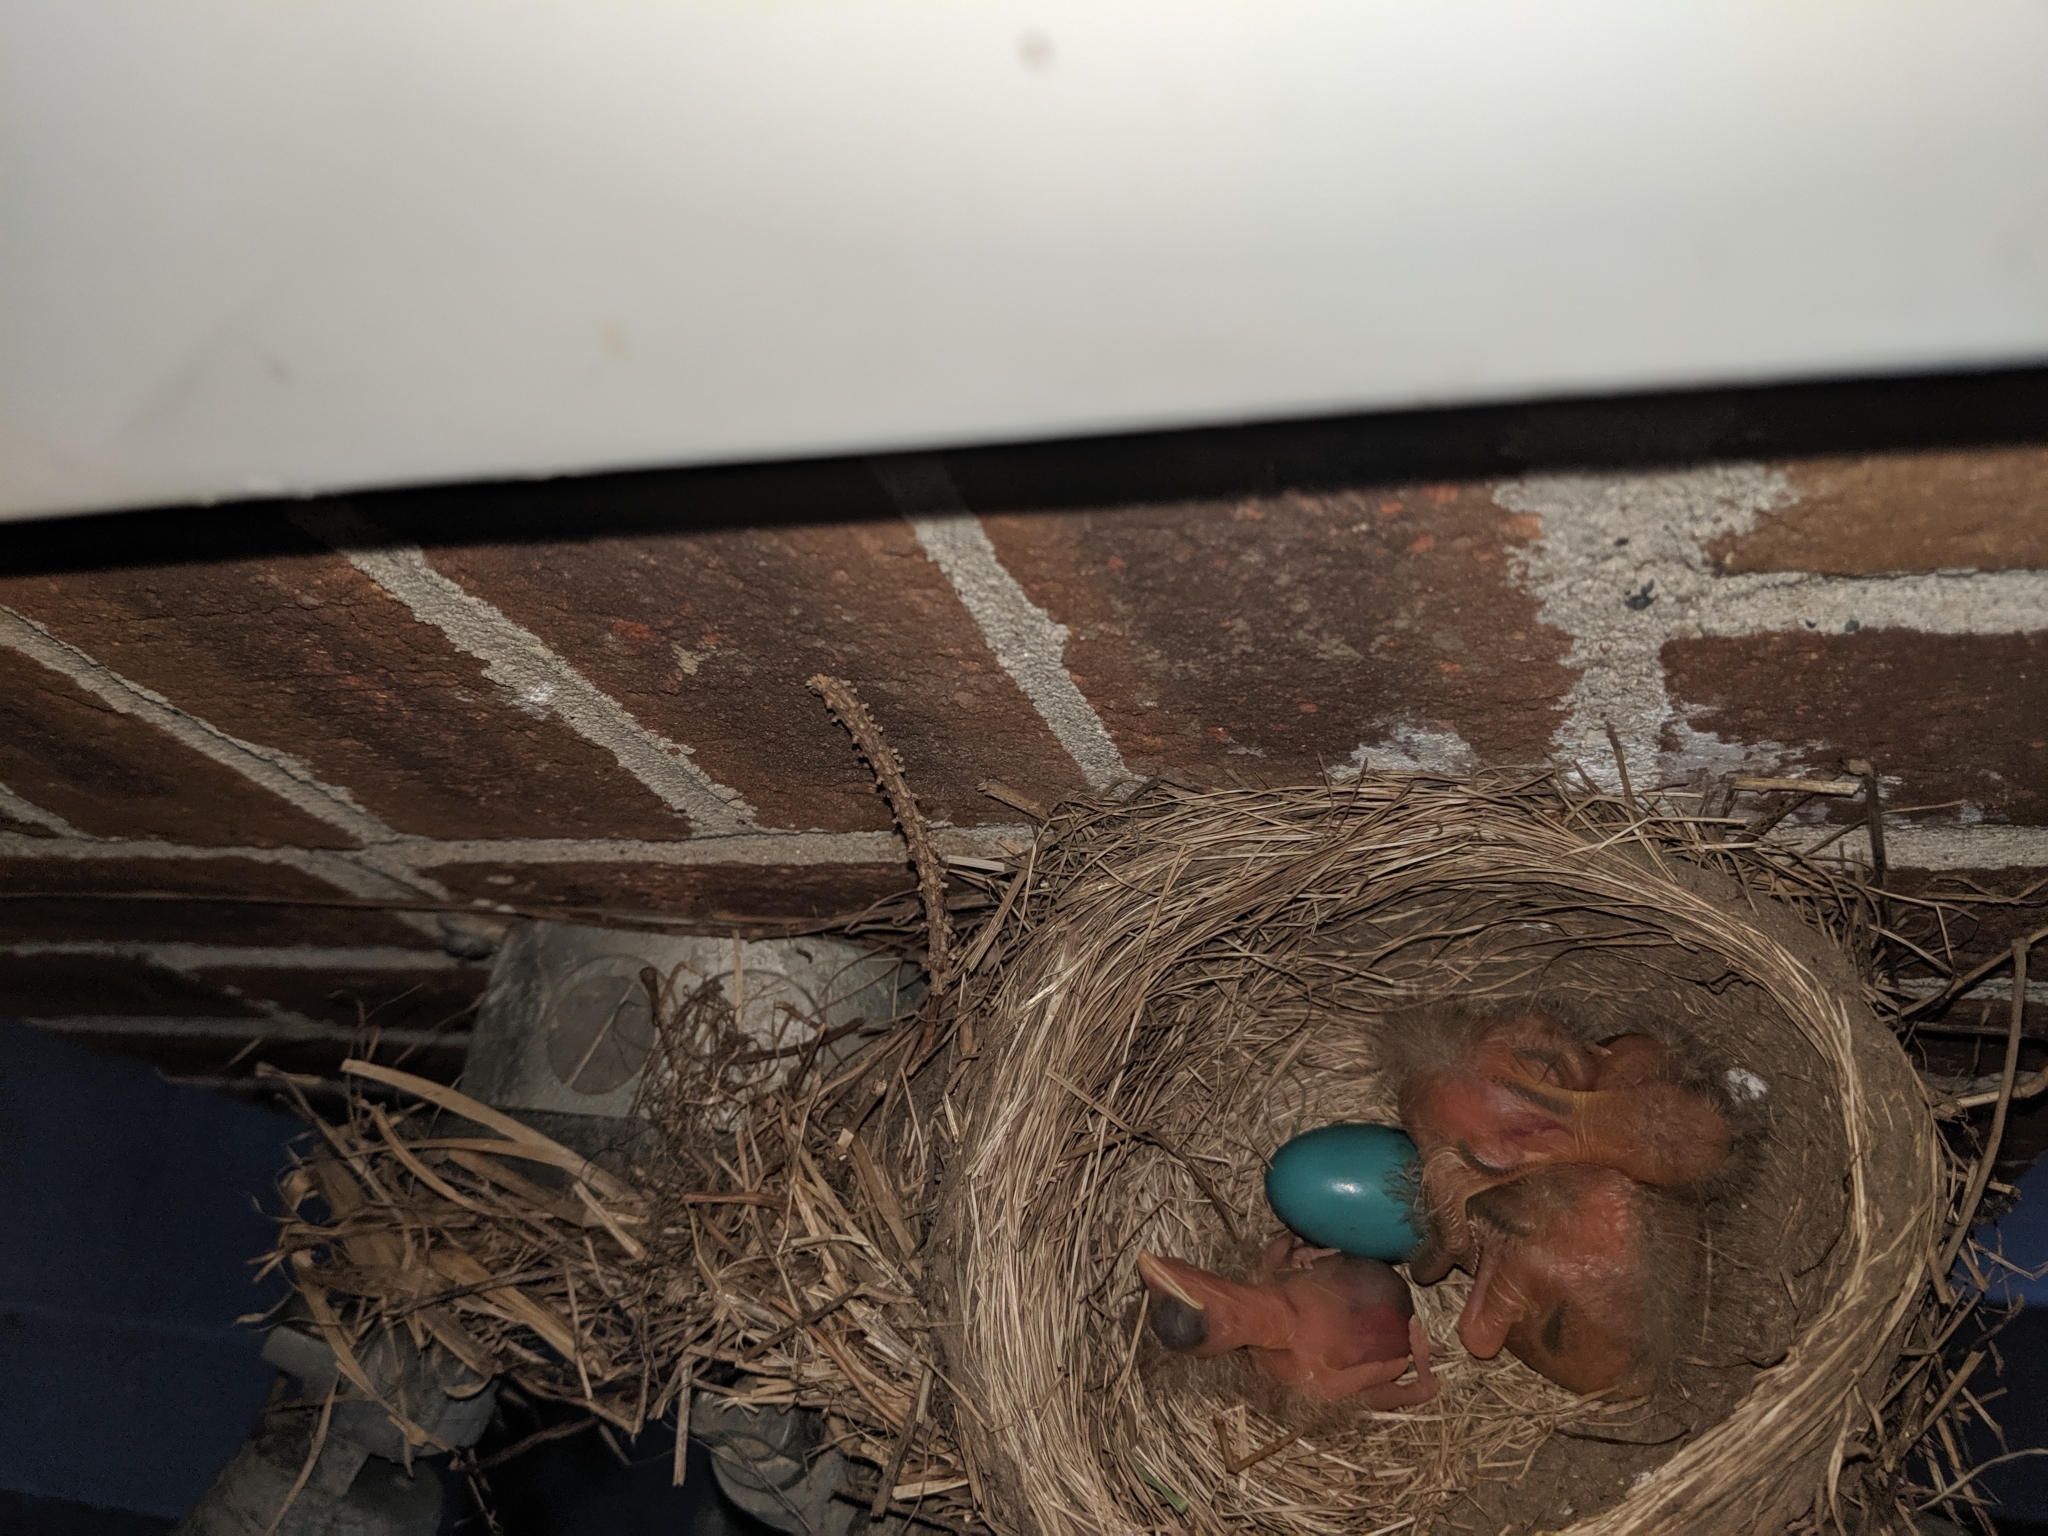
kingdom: Animalia
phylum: Chordata
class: Aves
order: Passeriformes
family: Turdidae
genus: Turdus
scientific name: Turdus migratorius
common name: American robin
